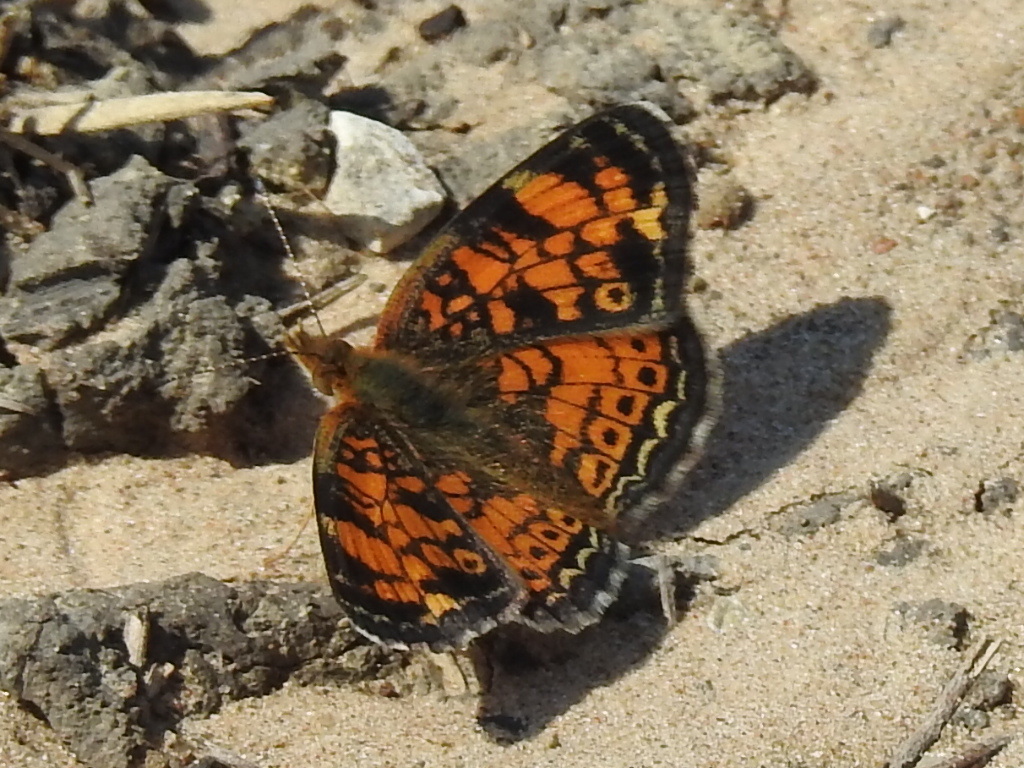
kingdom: Animalia
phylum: Arthropoda
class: Insecta
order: Lepidoptera
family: Nymphalidae
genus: Phyciodes
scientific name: Phyciodes tharos
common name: Pearl crescent
